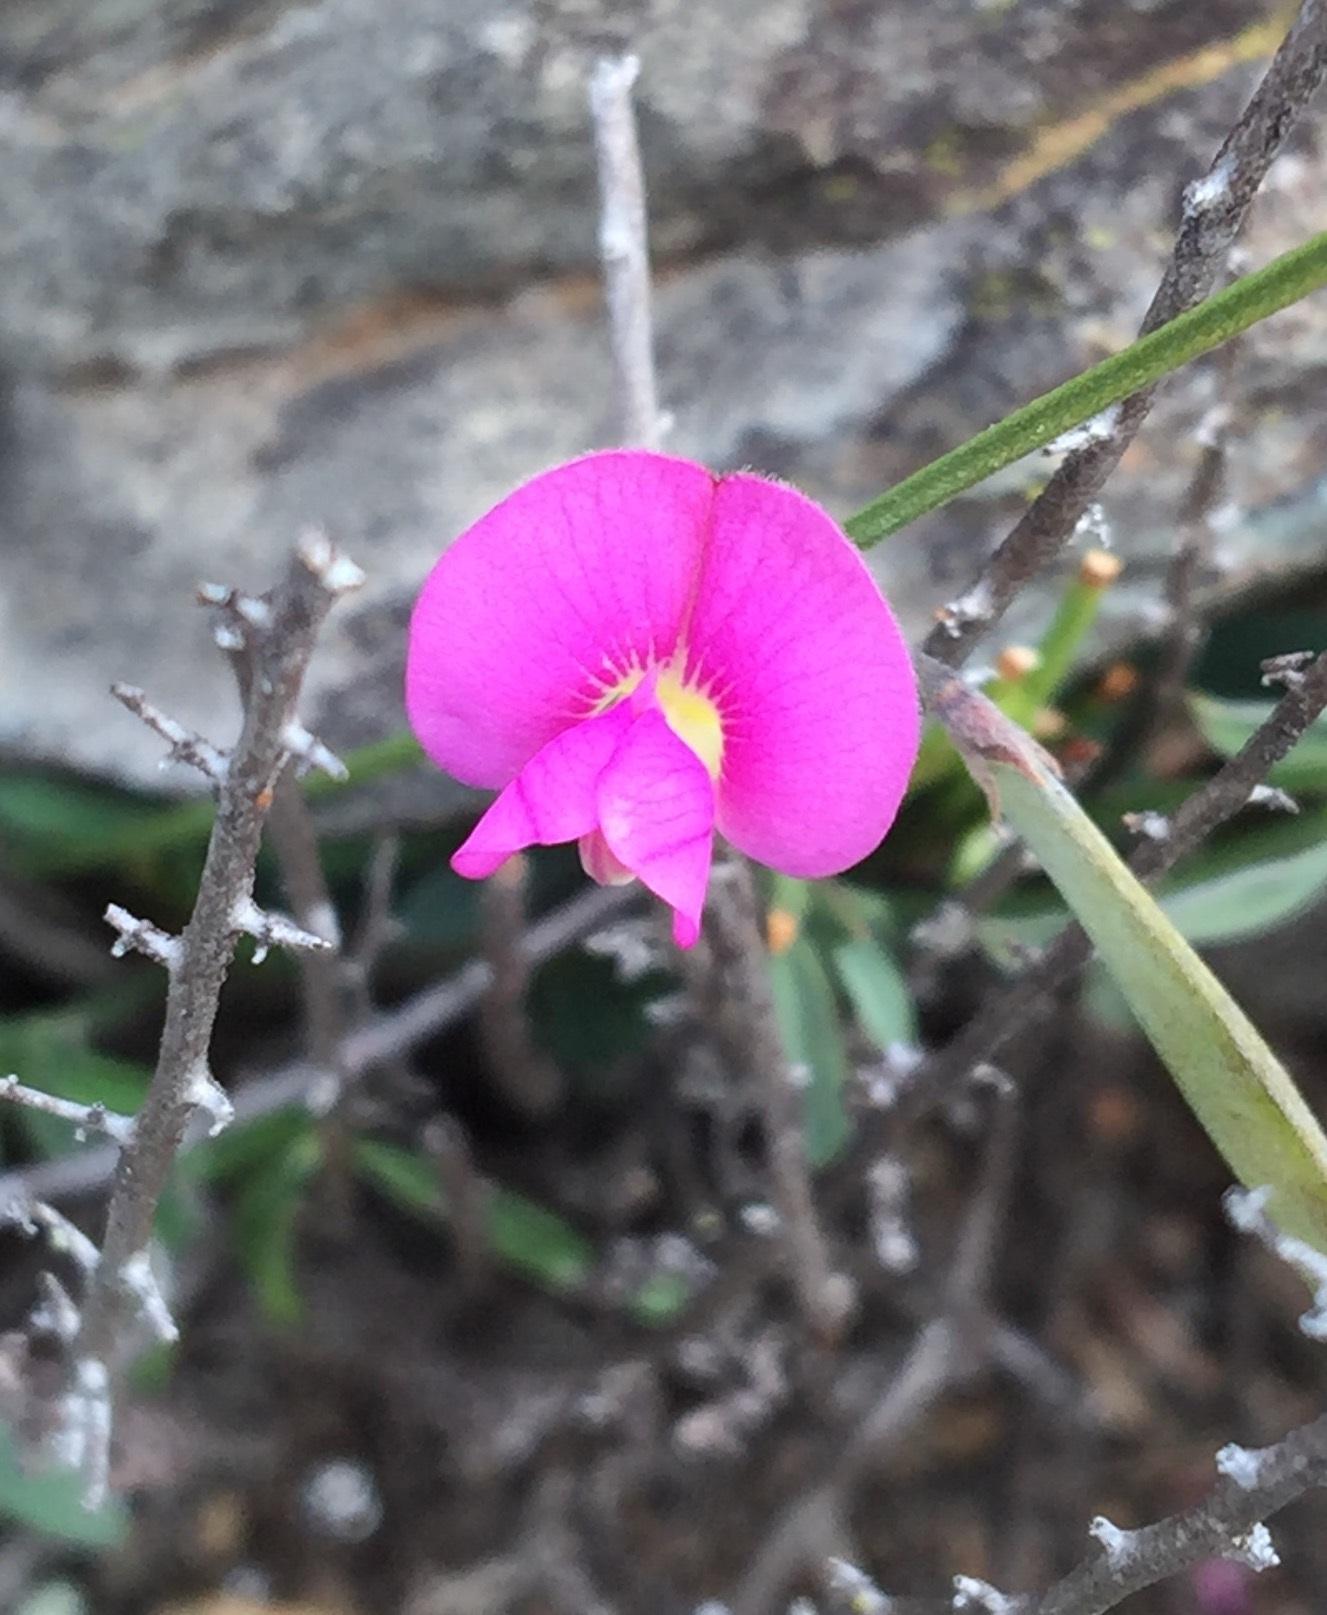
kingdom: Plantae
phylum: Tracheophyta
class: Magnoliopsida
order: Fabales
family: Fabaceae
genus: Tephrosia
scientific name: Tephrosia capensis
